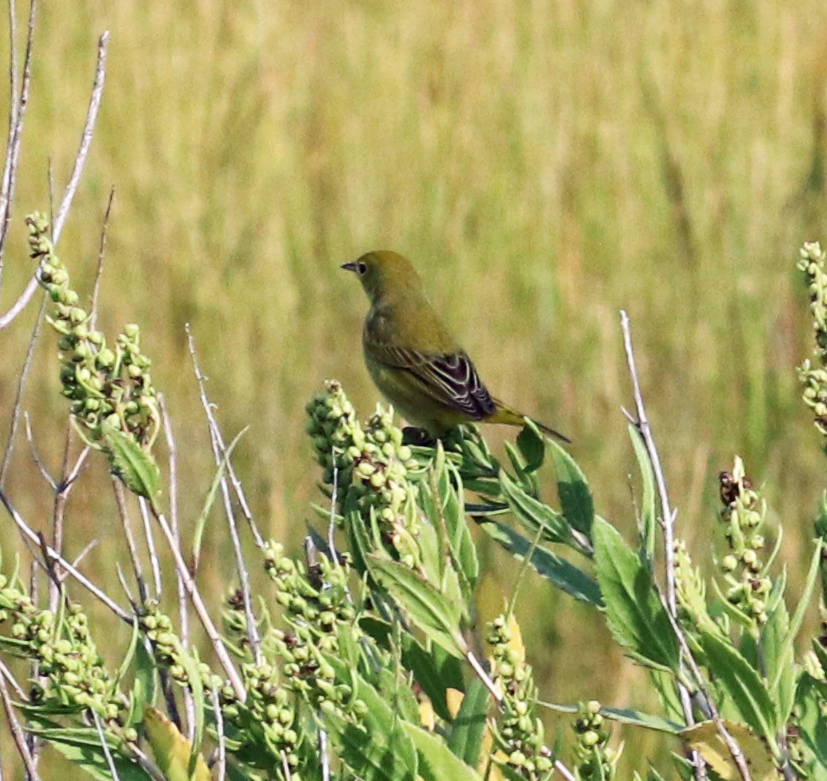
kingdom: Animalia
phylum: Chordata
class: Aves
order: Passeriformes
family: Parulidae
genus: Setophaga
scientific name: Setophaga petechia
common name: Yellow warbler
